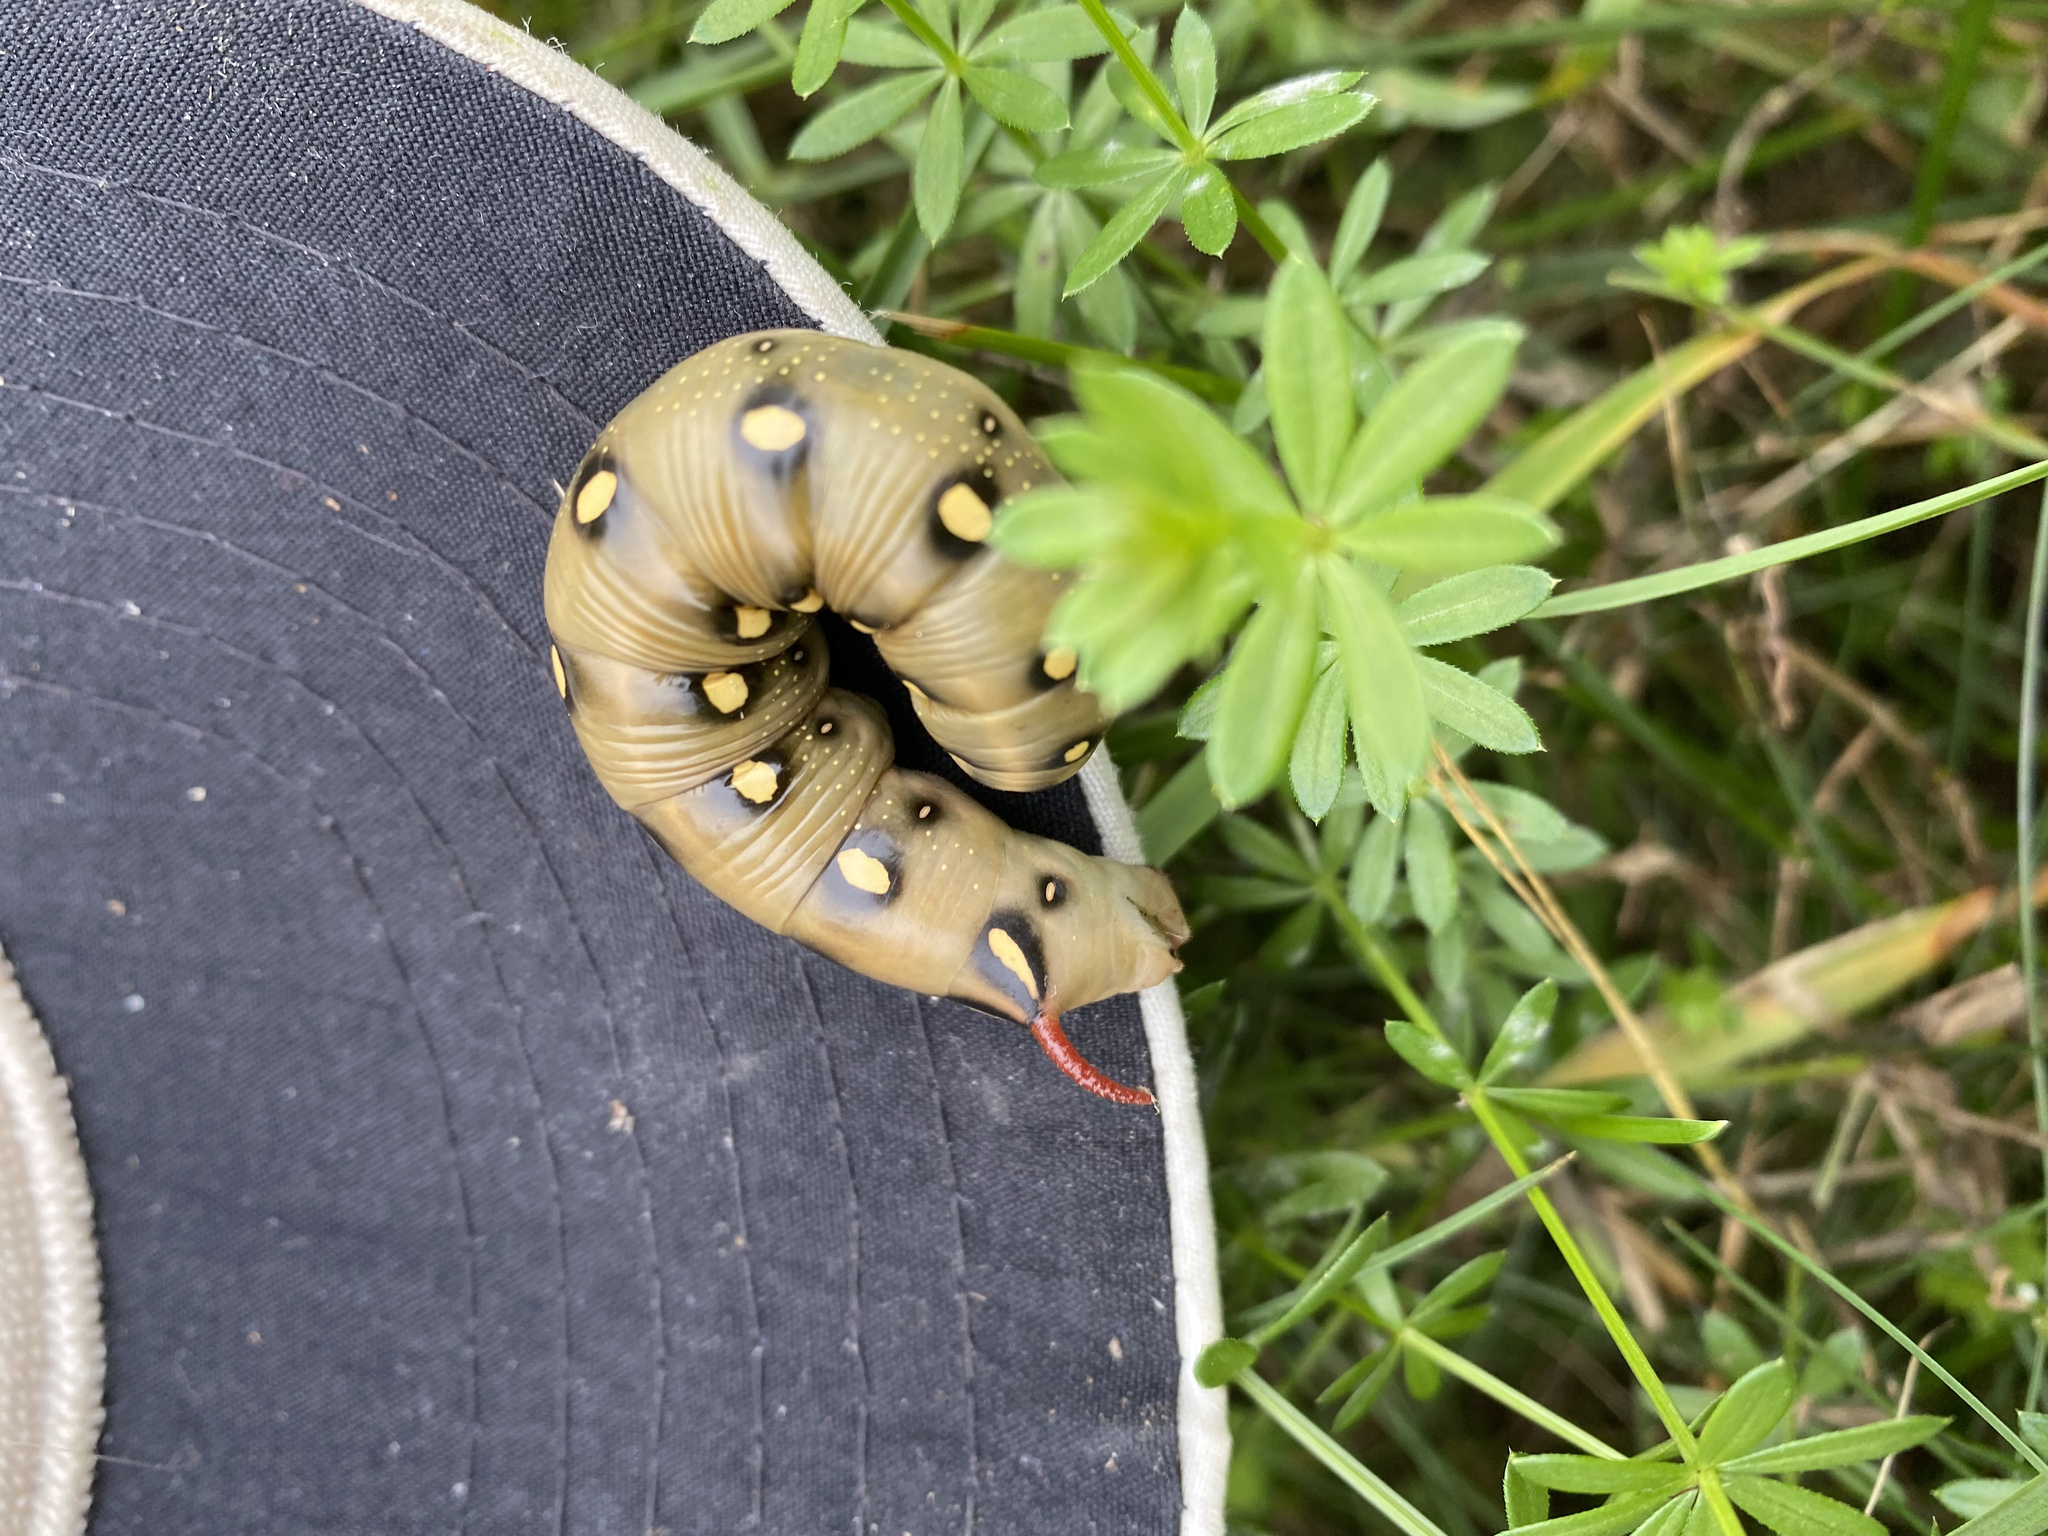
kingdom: Animalia
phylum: Arthropoda
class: Insecta
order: Lepidoptera
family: Sphingidae
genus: Hyles
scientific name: Hyles gallii
